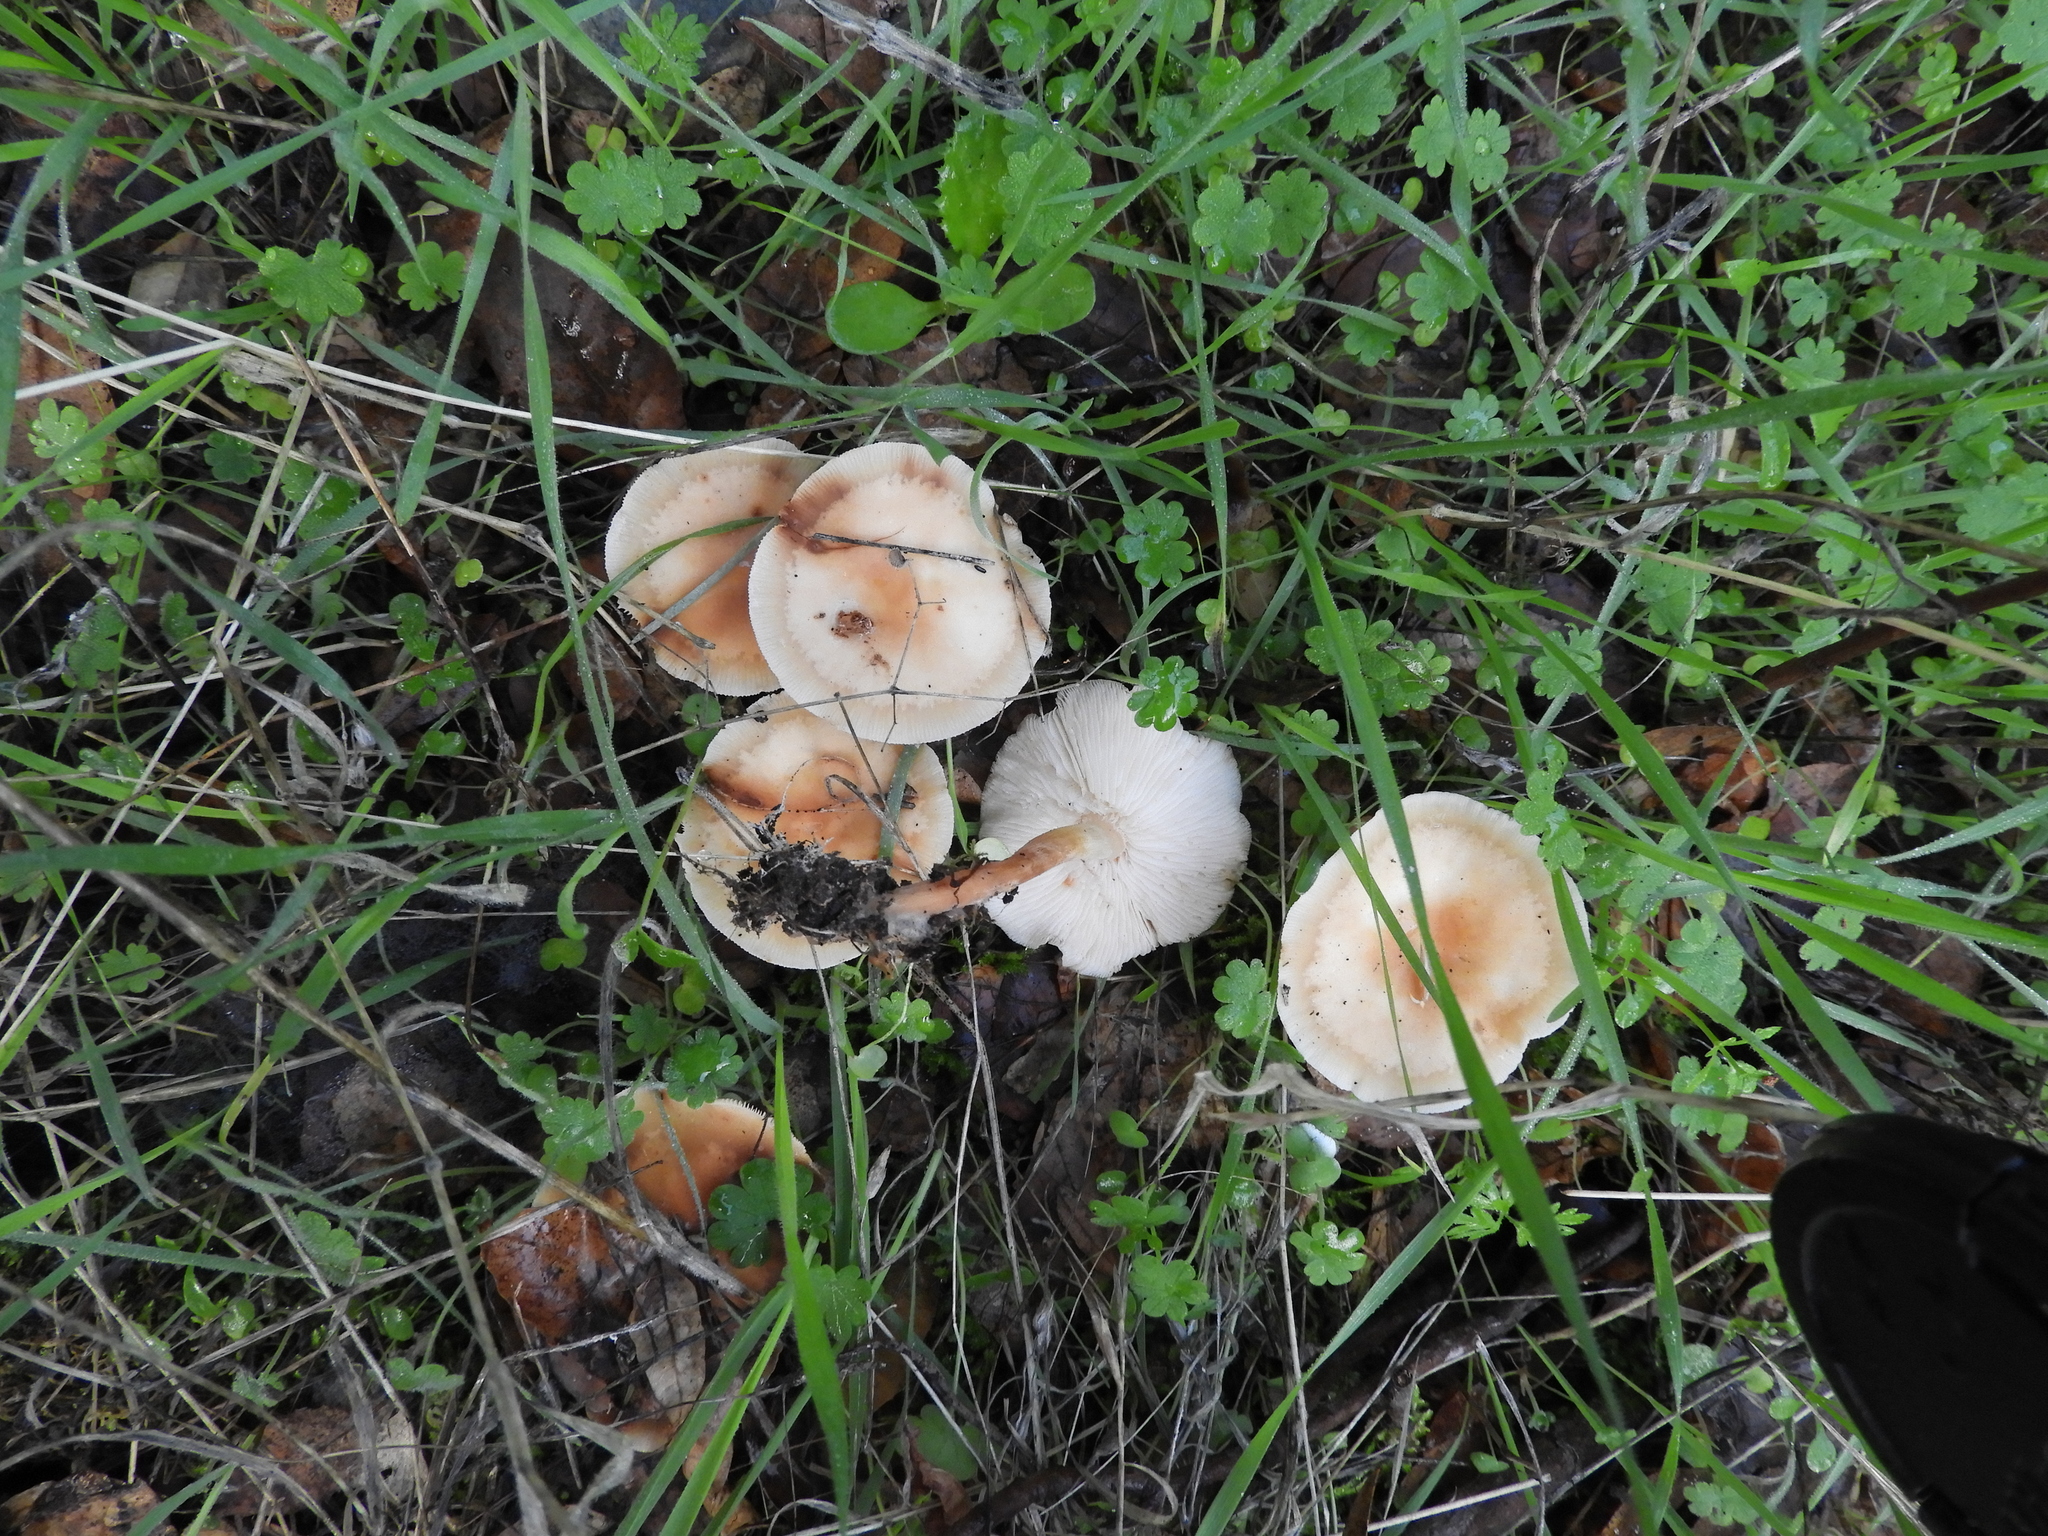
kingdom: Fungi
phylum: Basidiomycota
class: Agaricomycetes
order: Agaricales
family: Omphalotaceae
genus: Gymnopus
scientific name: Gymnopus dryophilus
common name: Penny top
